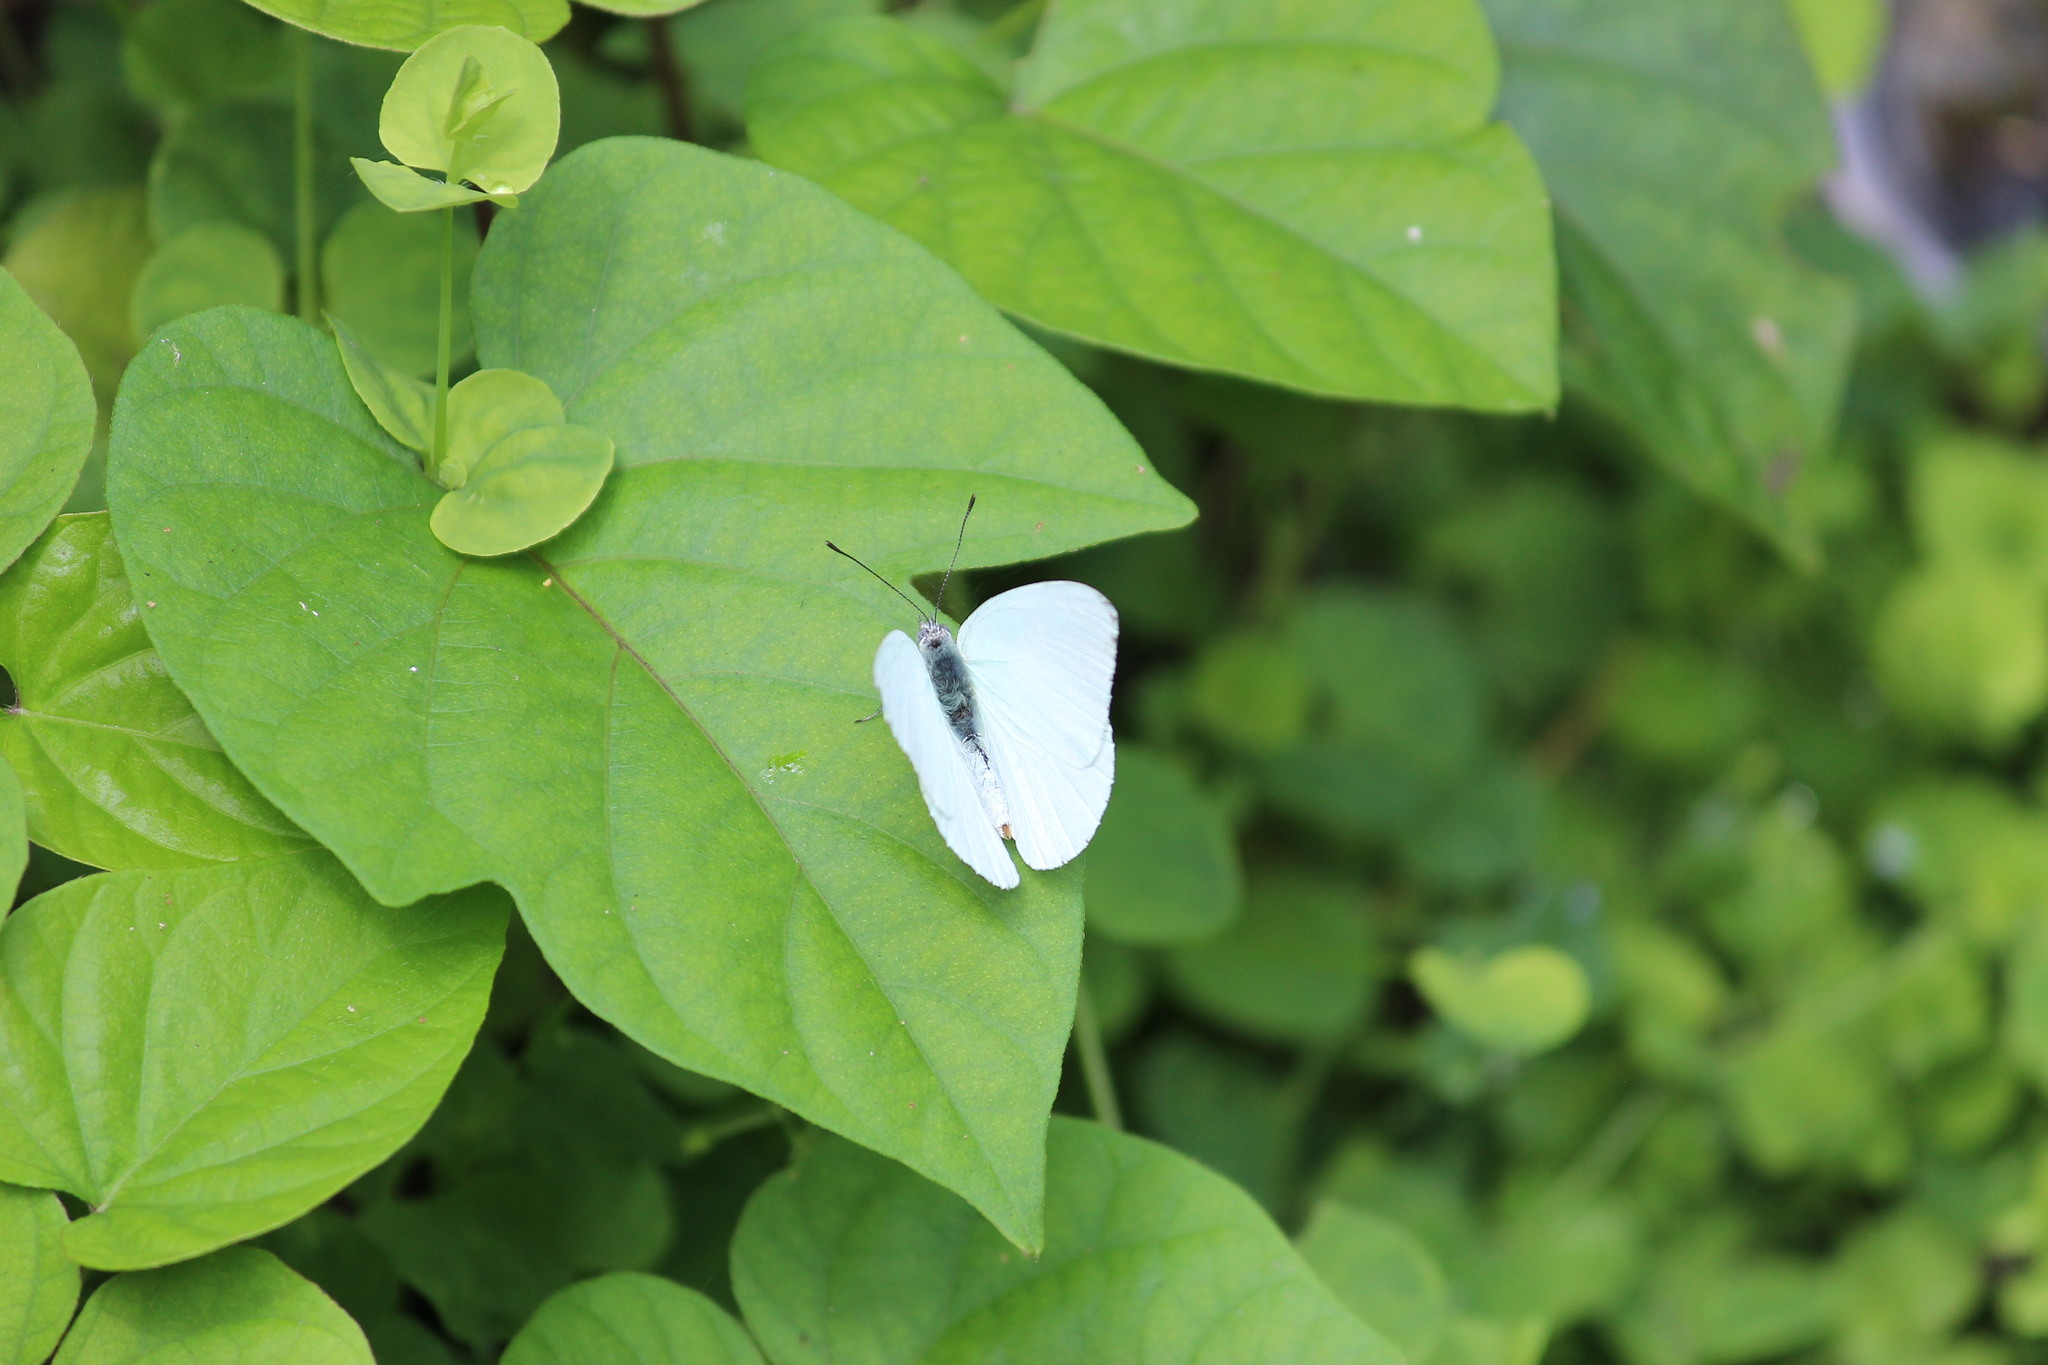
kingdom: Animalia
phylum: Arthropoda
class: Insecta
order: Lepidoptera
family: Pieridae
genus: Dixeia
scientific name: Dixeia pigea
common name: Ant-heap small white
